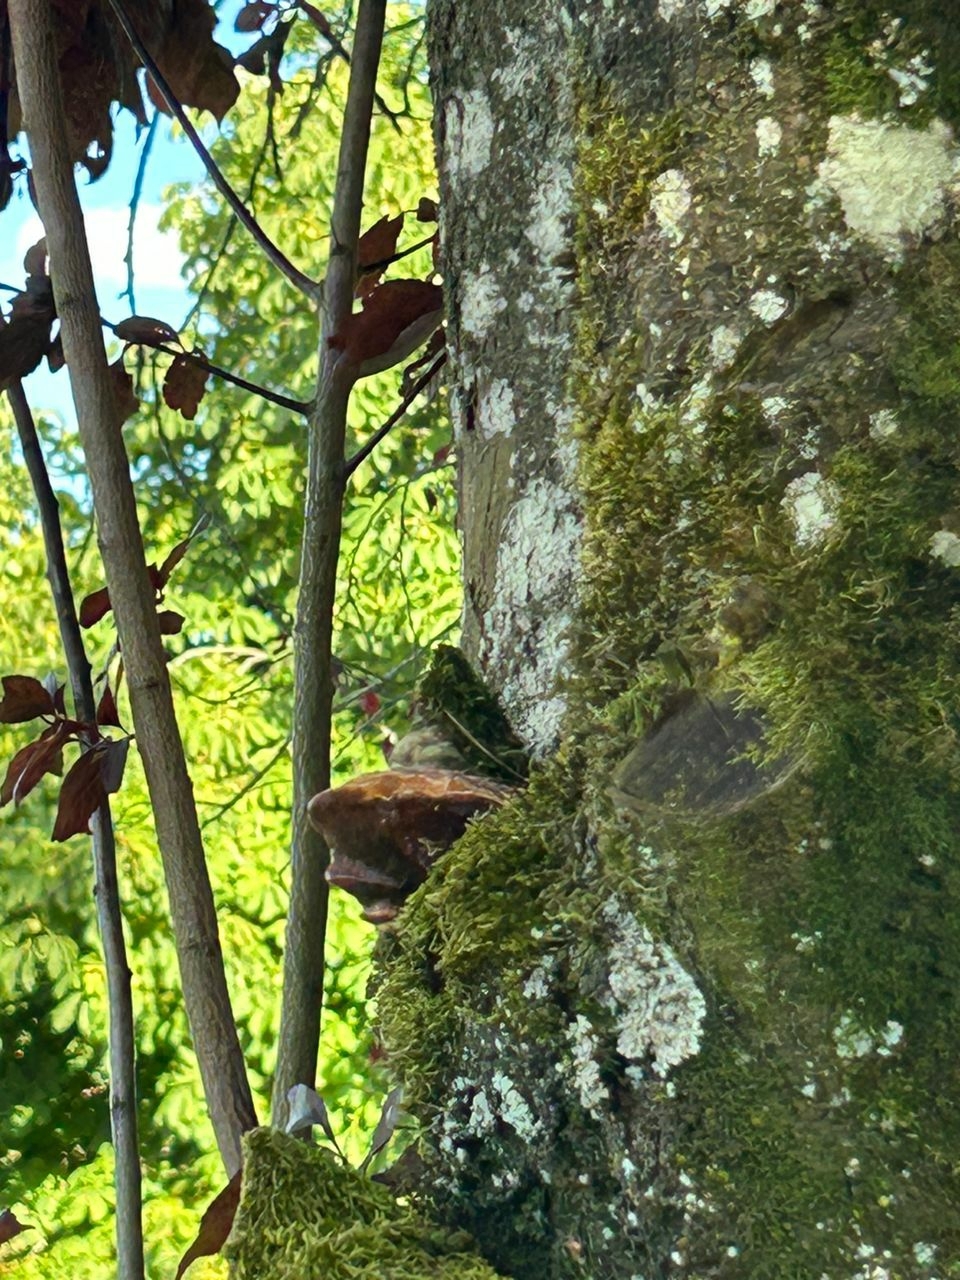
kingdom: Fungi
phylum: Basidiomycota
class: Agaricomycetes
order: Hymenochaetales
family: Hymenochaetaceae
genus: Phellinus
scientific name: Phellinus pomaceus
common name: Cushion bracket
